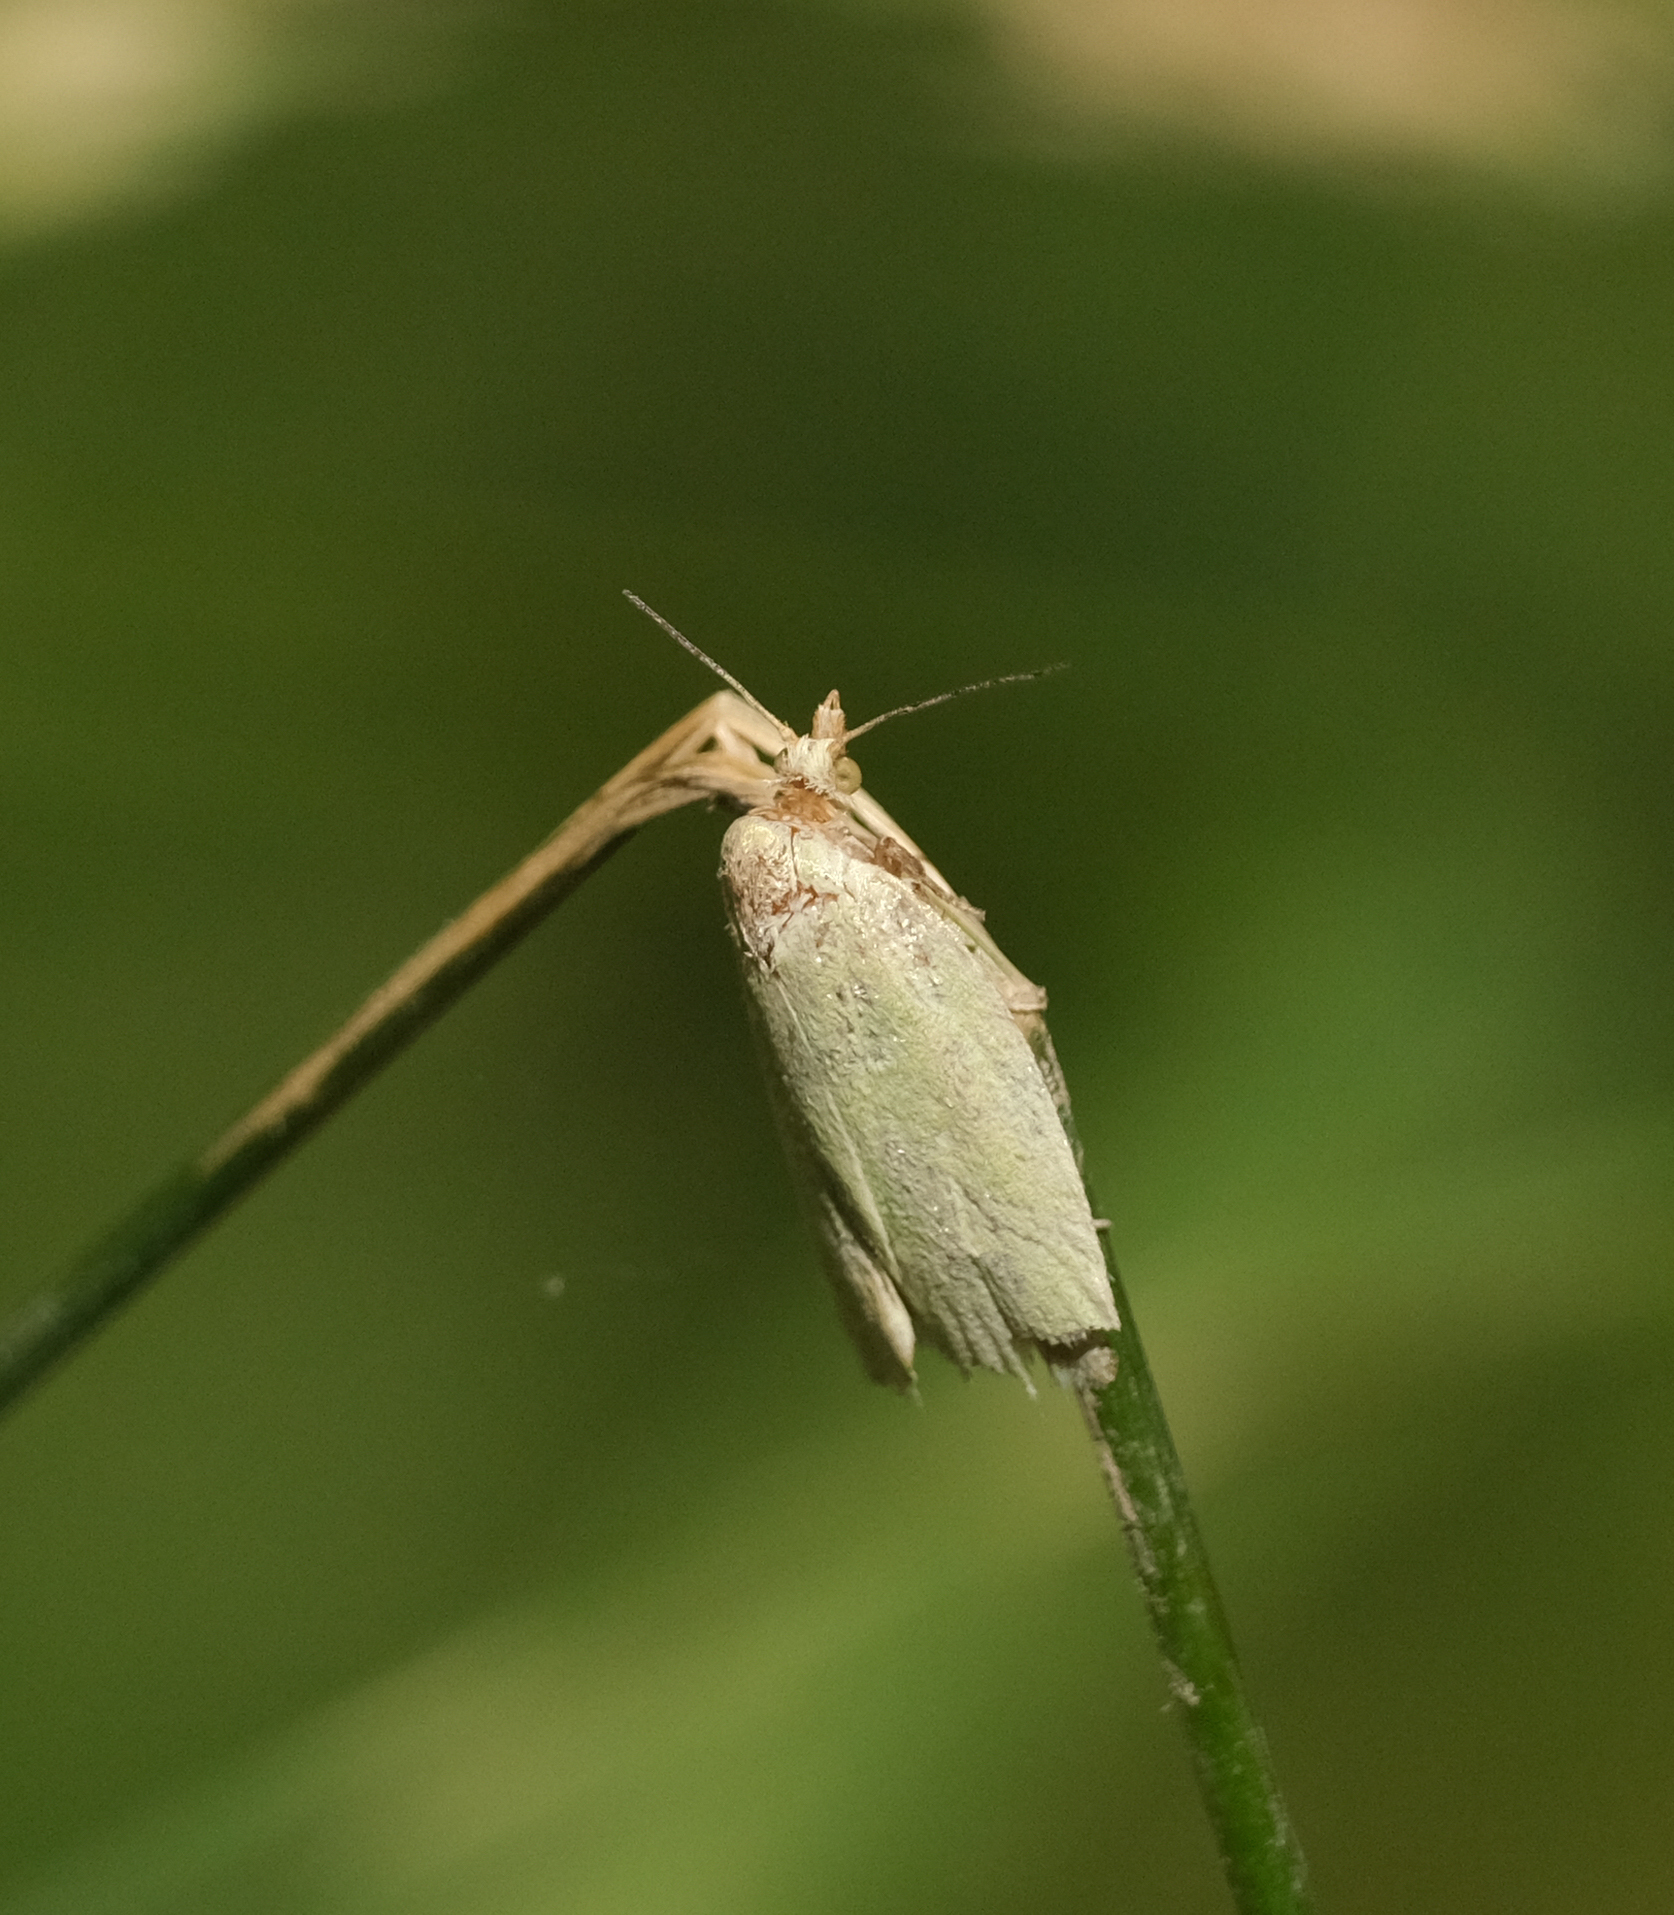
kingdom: Animalia
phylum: Arthropoda
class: Insecta
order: Lepidoptera
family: Tortricidae
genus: Tortrix
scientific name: Tortrix viridana
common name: Green oak tortrix
